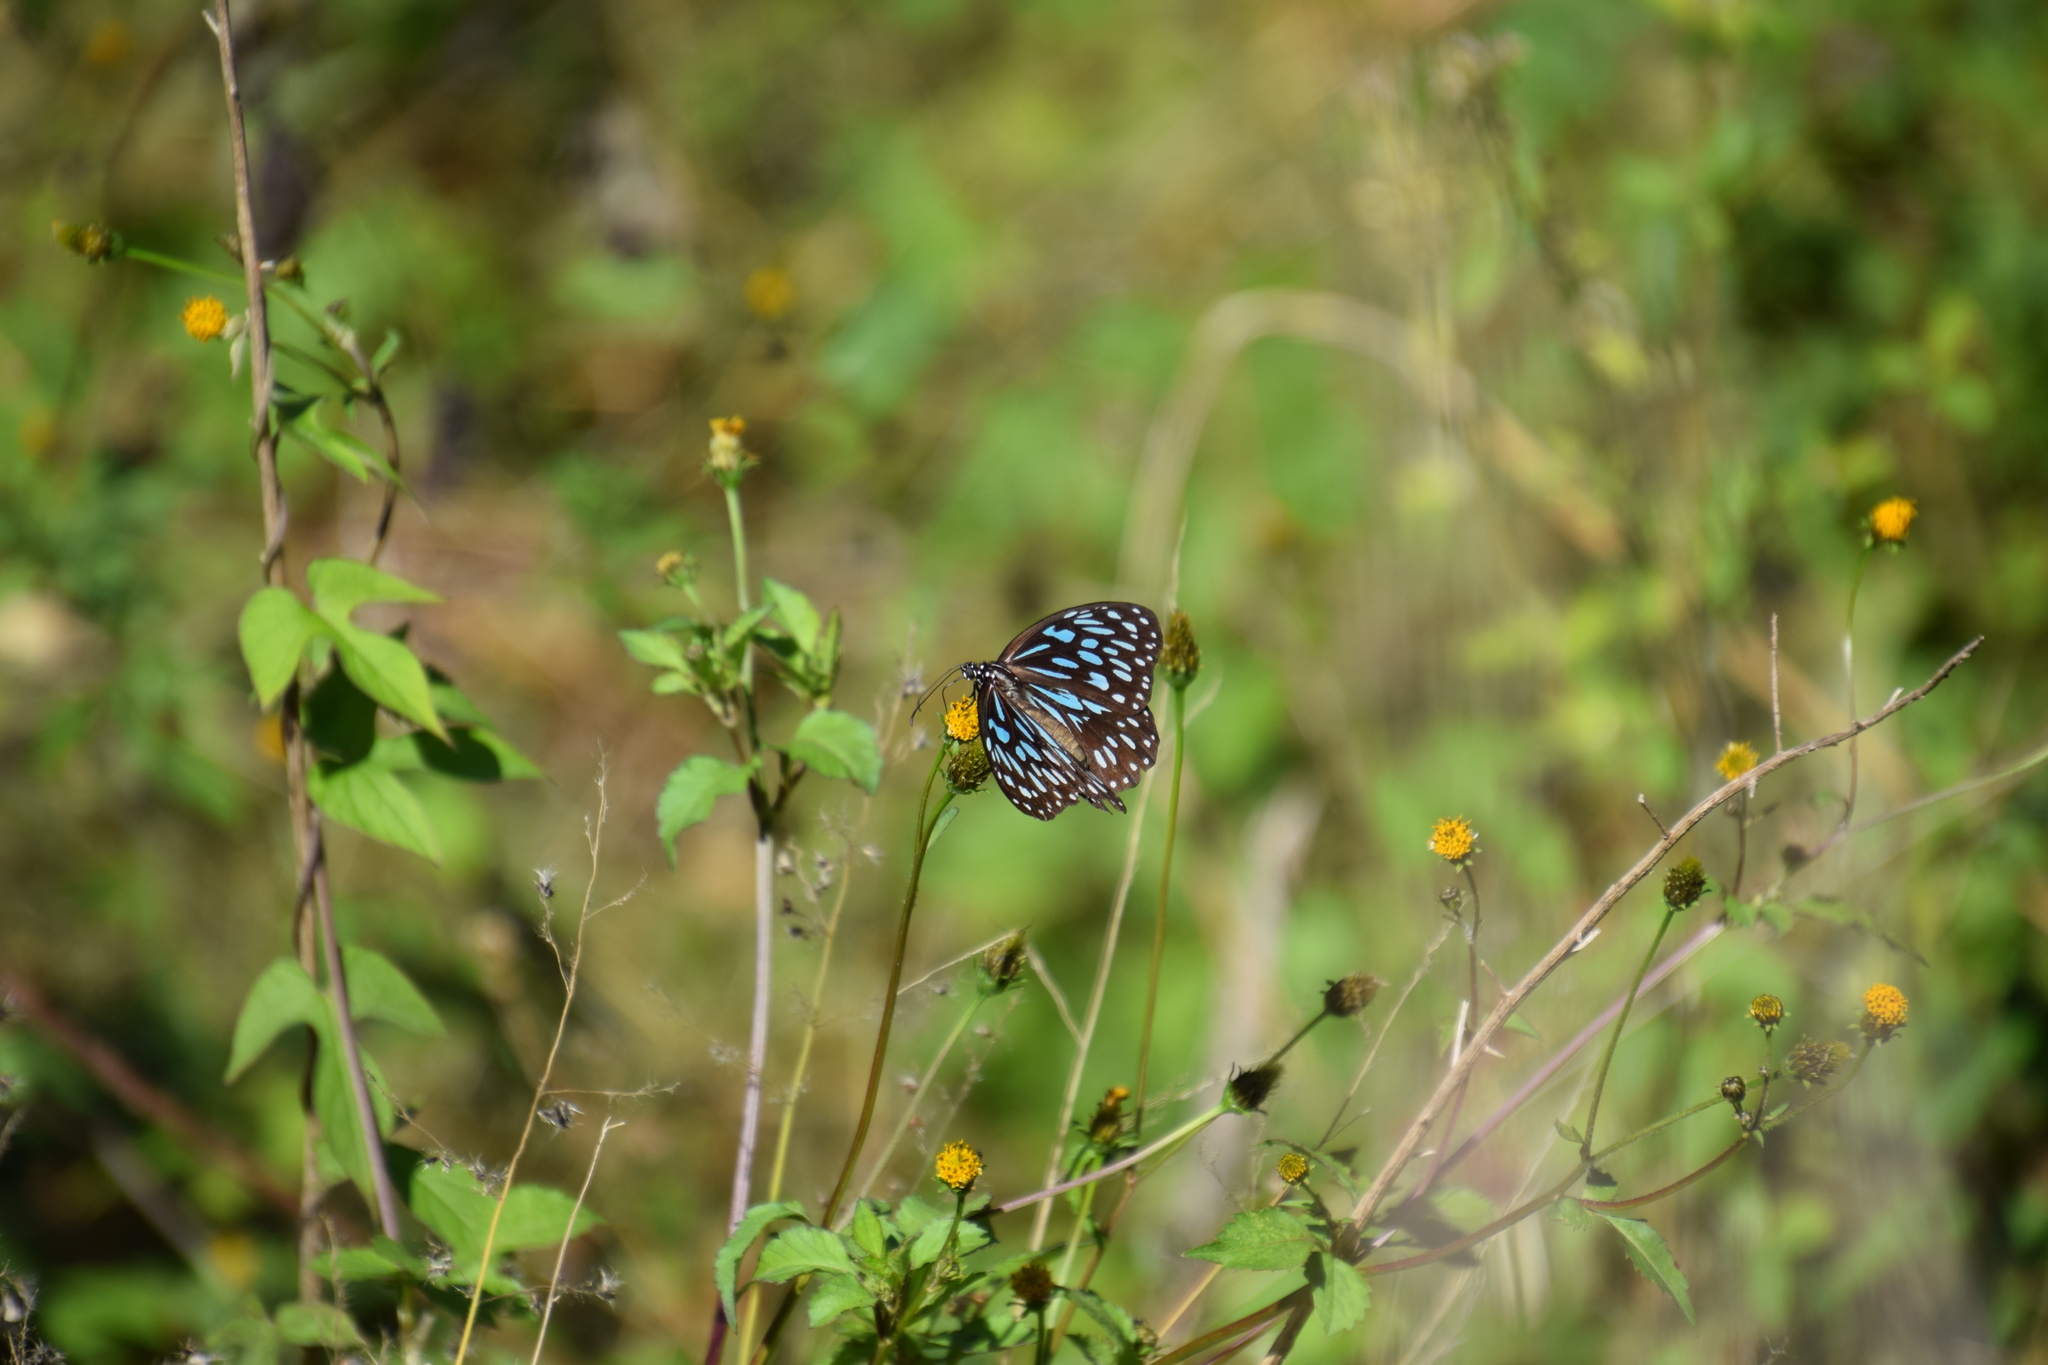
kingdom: Animalia
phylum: Arthropoda
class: Insecta
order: Lepidoptera
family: Nymphalidae
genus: Tirumala
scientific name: Tirumala hamata
